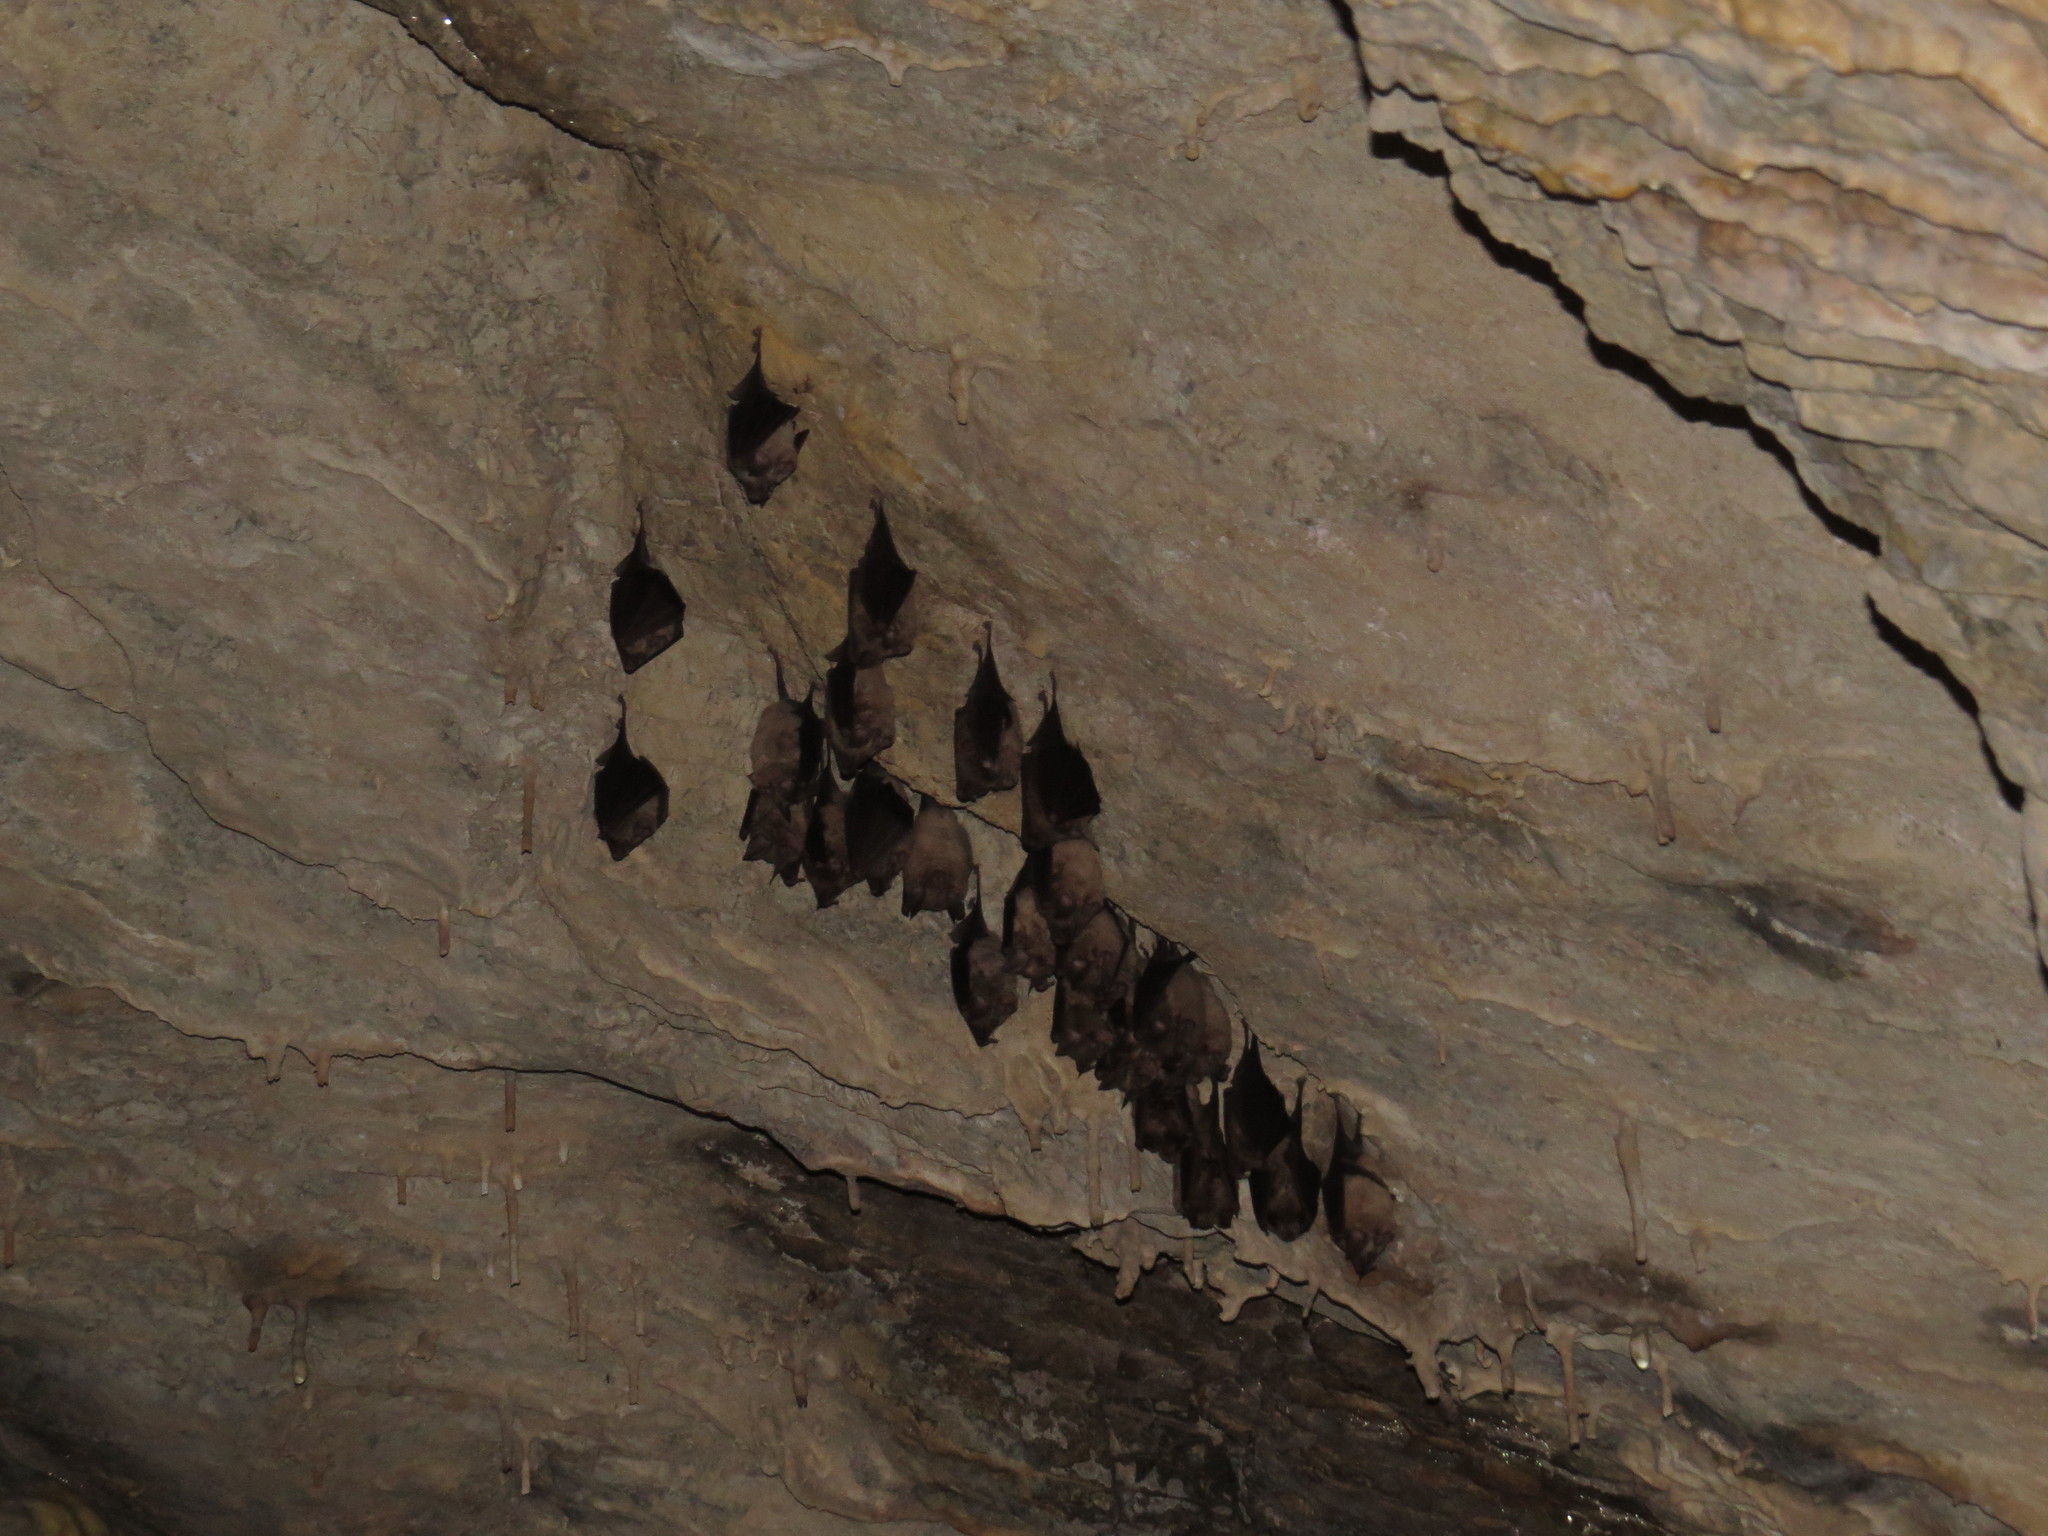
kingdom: Animalia
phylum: Chordata
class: Mammalia
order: Chiroptera
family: Rhinolophidae
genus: Rhinolophus
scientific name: Rhinolophus ferrumequinum
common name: Greater horseshoe bat
